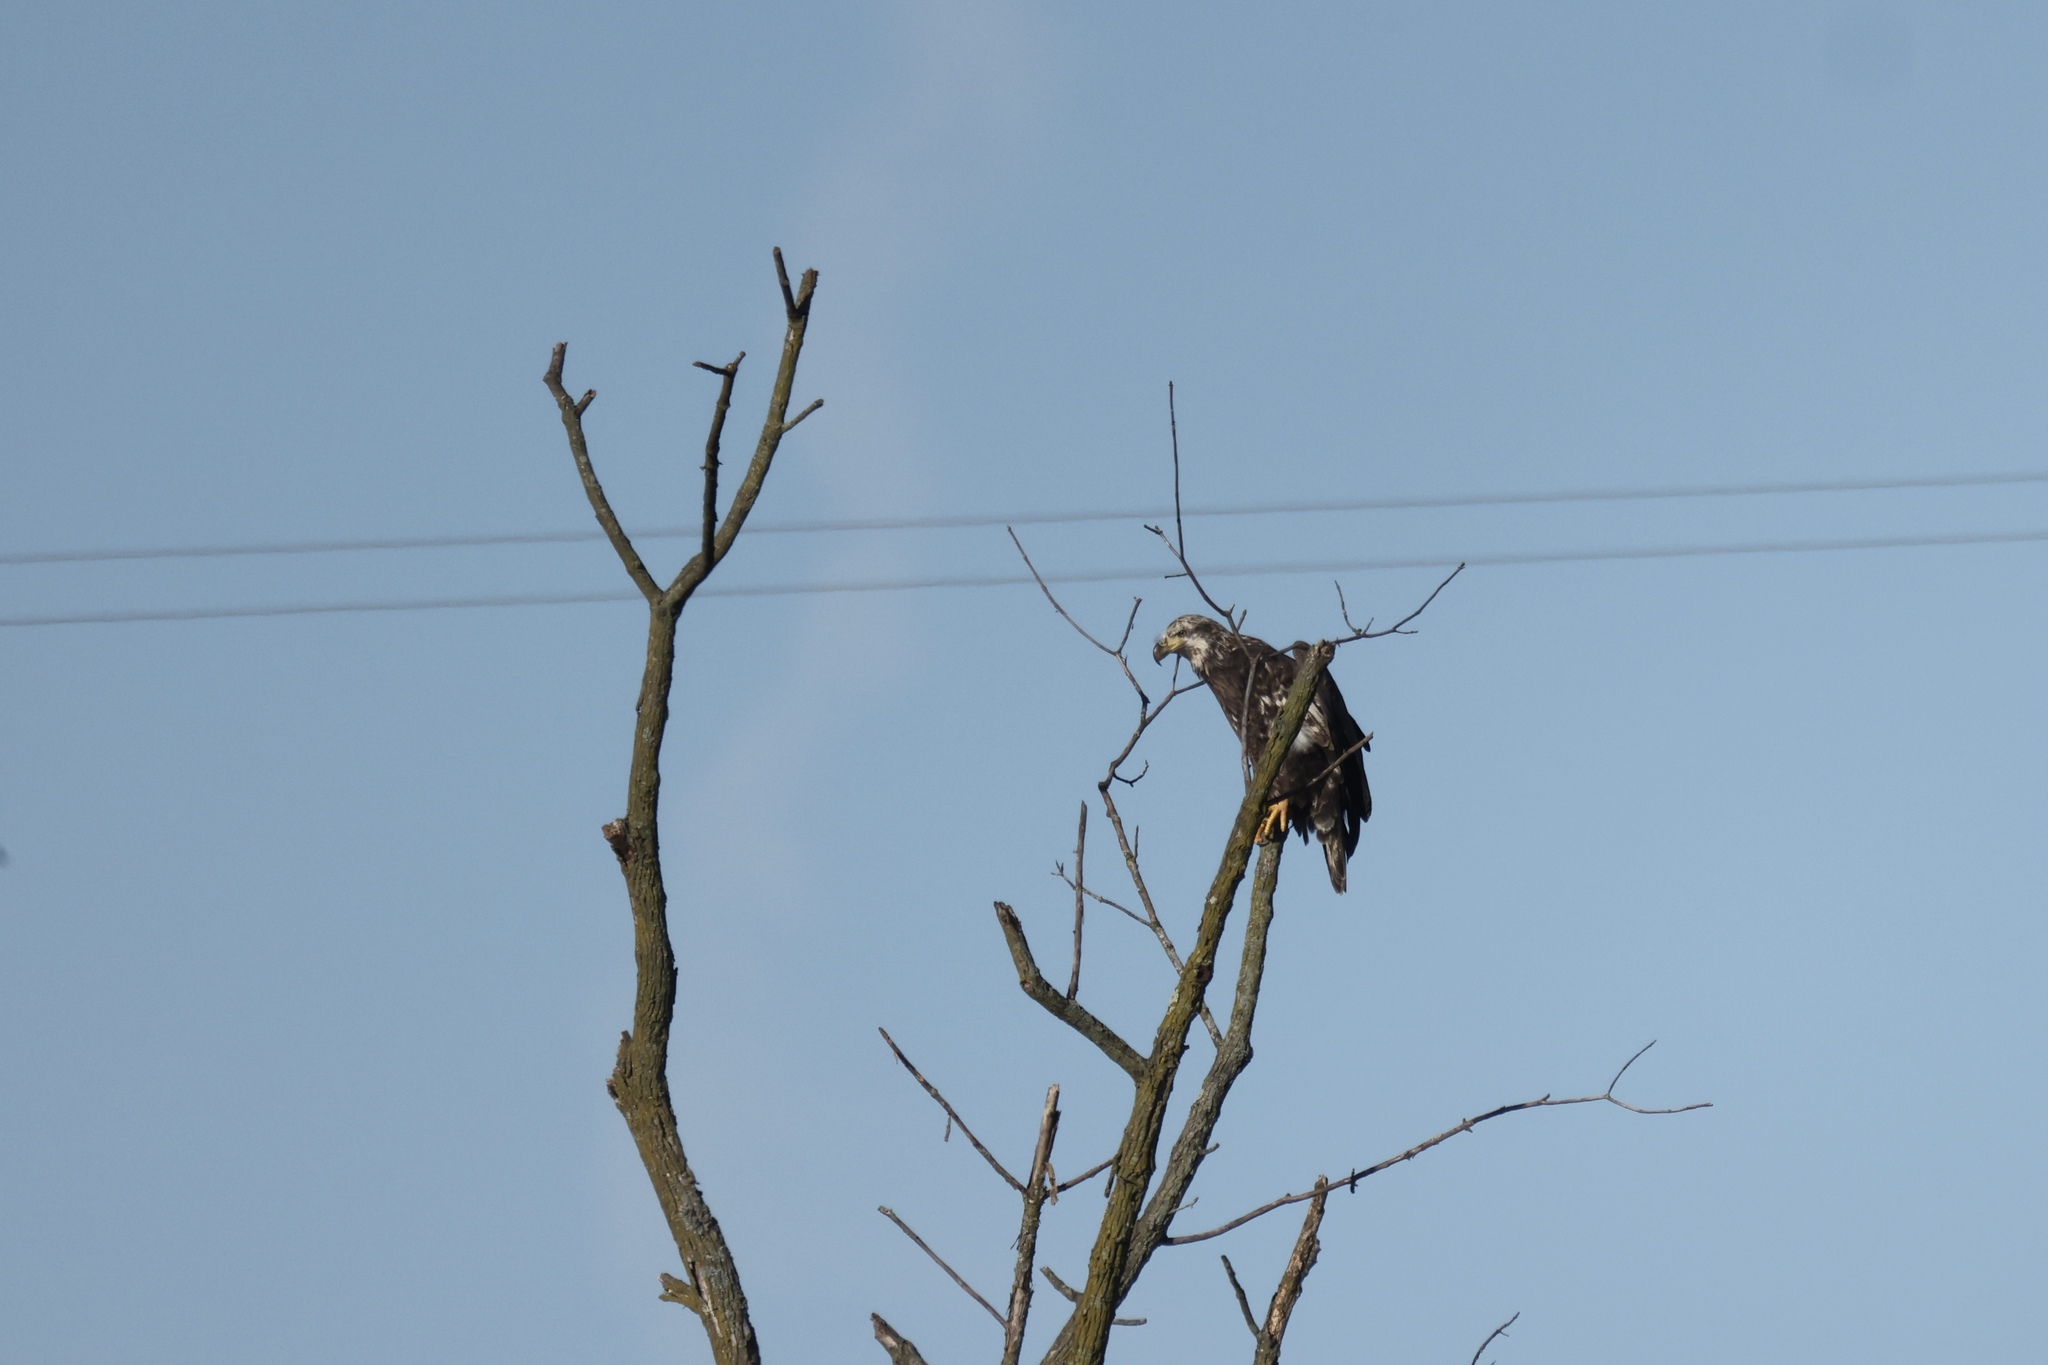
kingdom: Animalia
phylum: Chordata
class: Aves
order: Accipitriformes
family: Accipitridae
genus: Haliaeetus
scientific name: Haliaeetus leucocephalus
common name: Bald eagle
